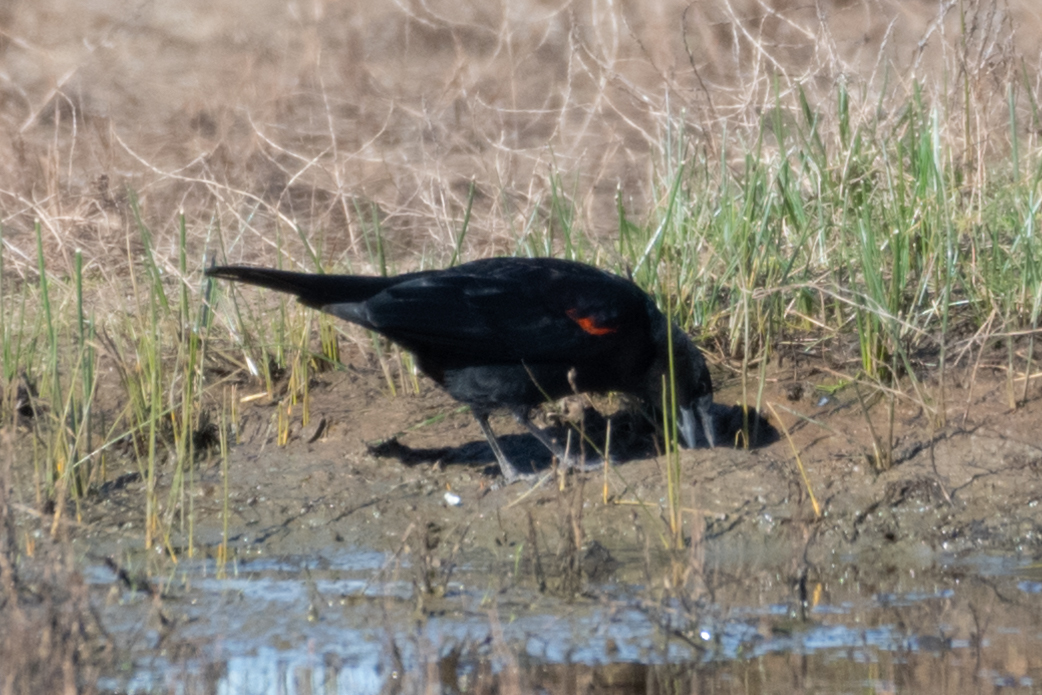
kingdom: Animalia
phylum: Chordata
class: Aves
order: Passeriformes
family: Icteridae
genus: Agelaius
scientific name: Agelaius phoeniceus
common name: Red-winged blackbird
